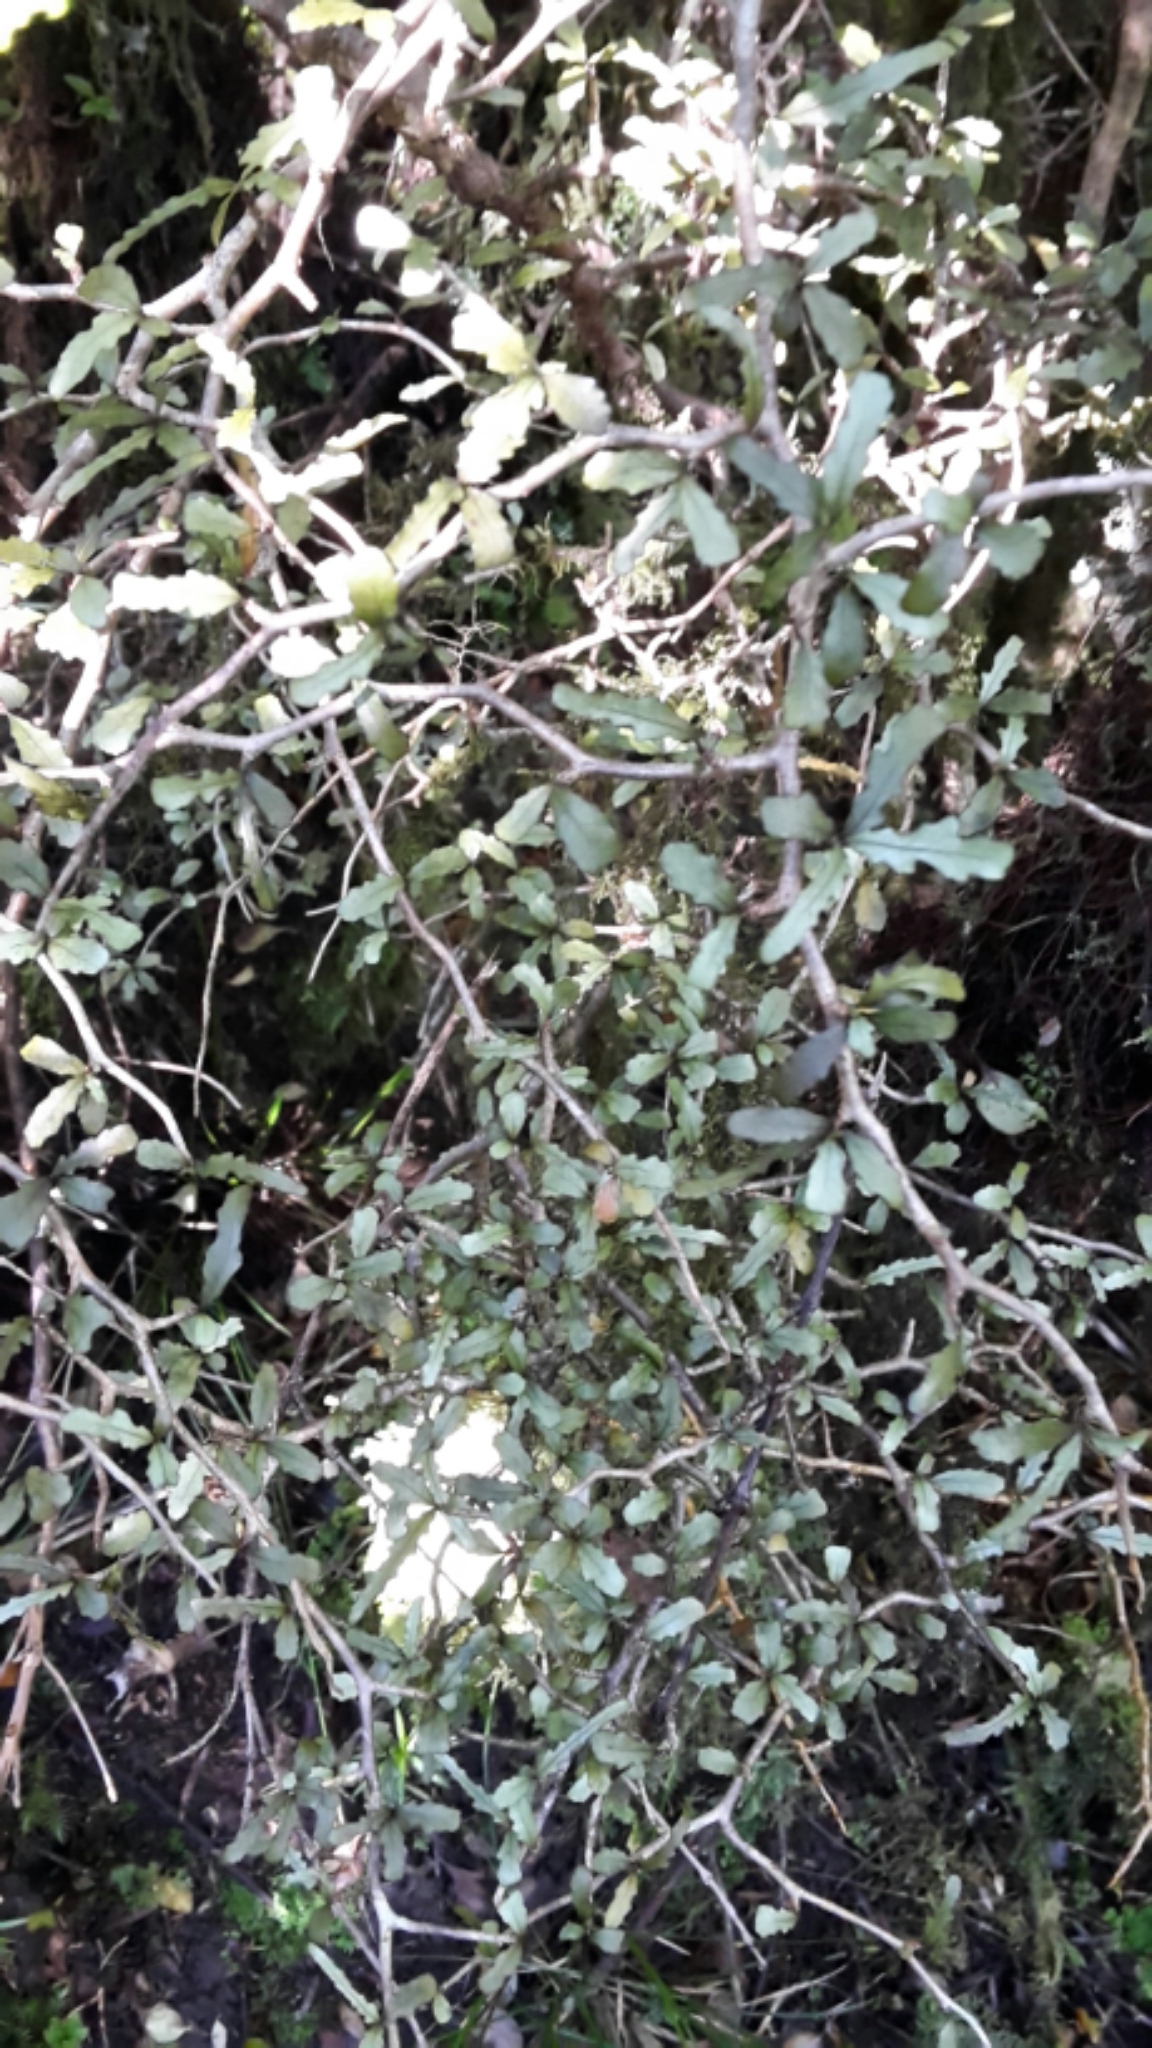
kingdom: Plantae
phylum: Tracheophyta
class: Magnoliopsida
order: Oxalidales
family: Elaeocarpaceae
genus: Elaeocarpus
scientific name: Elaeocarpus hookerianus
